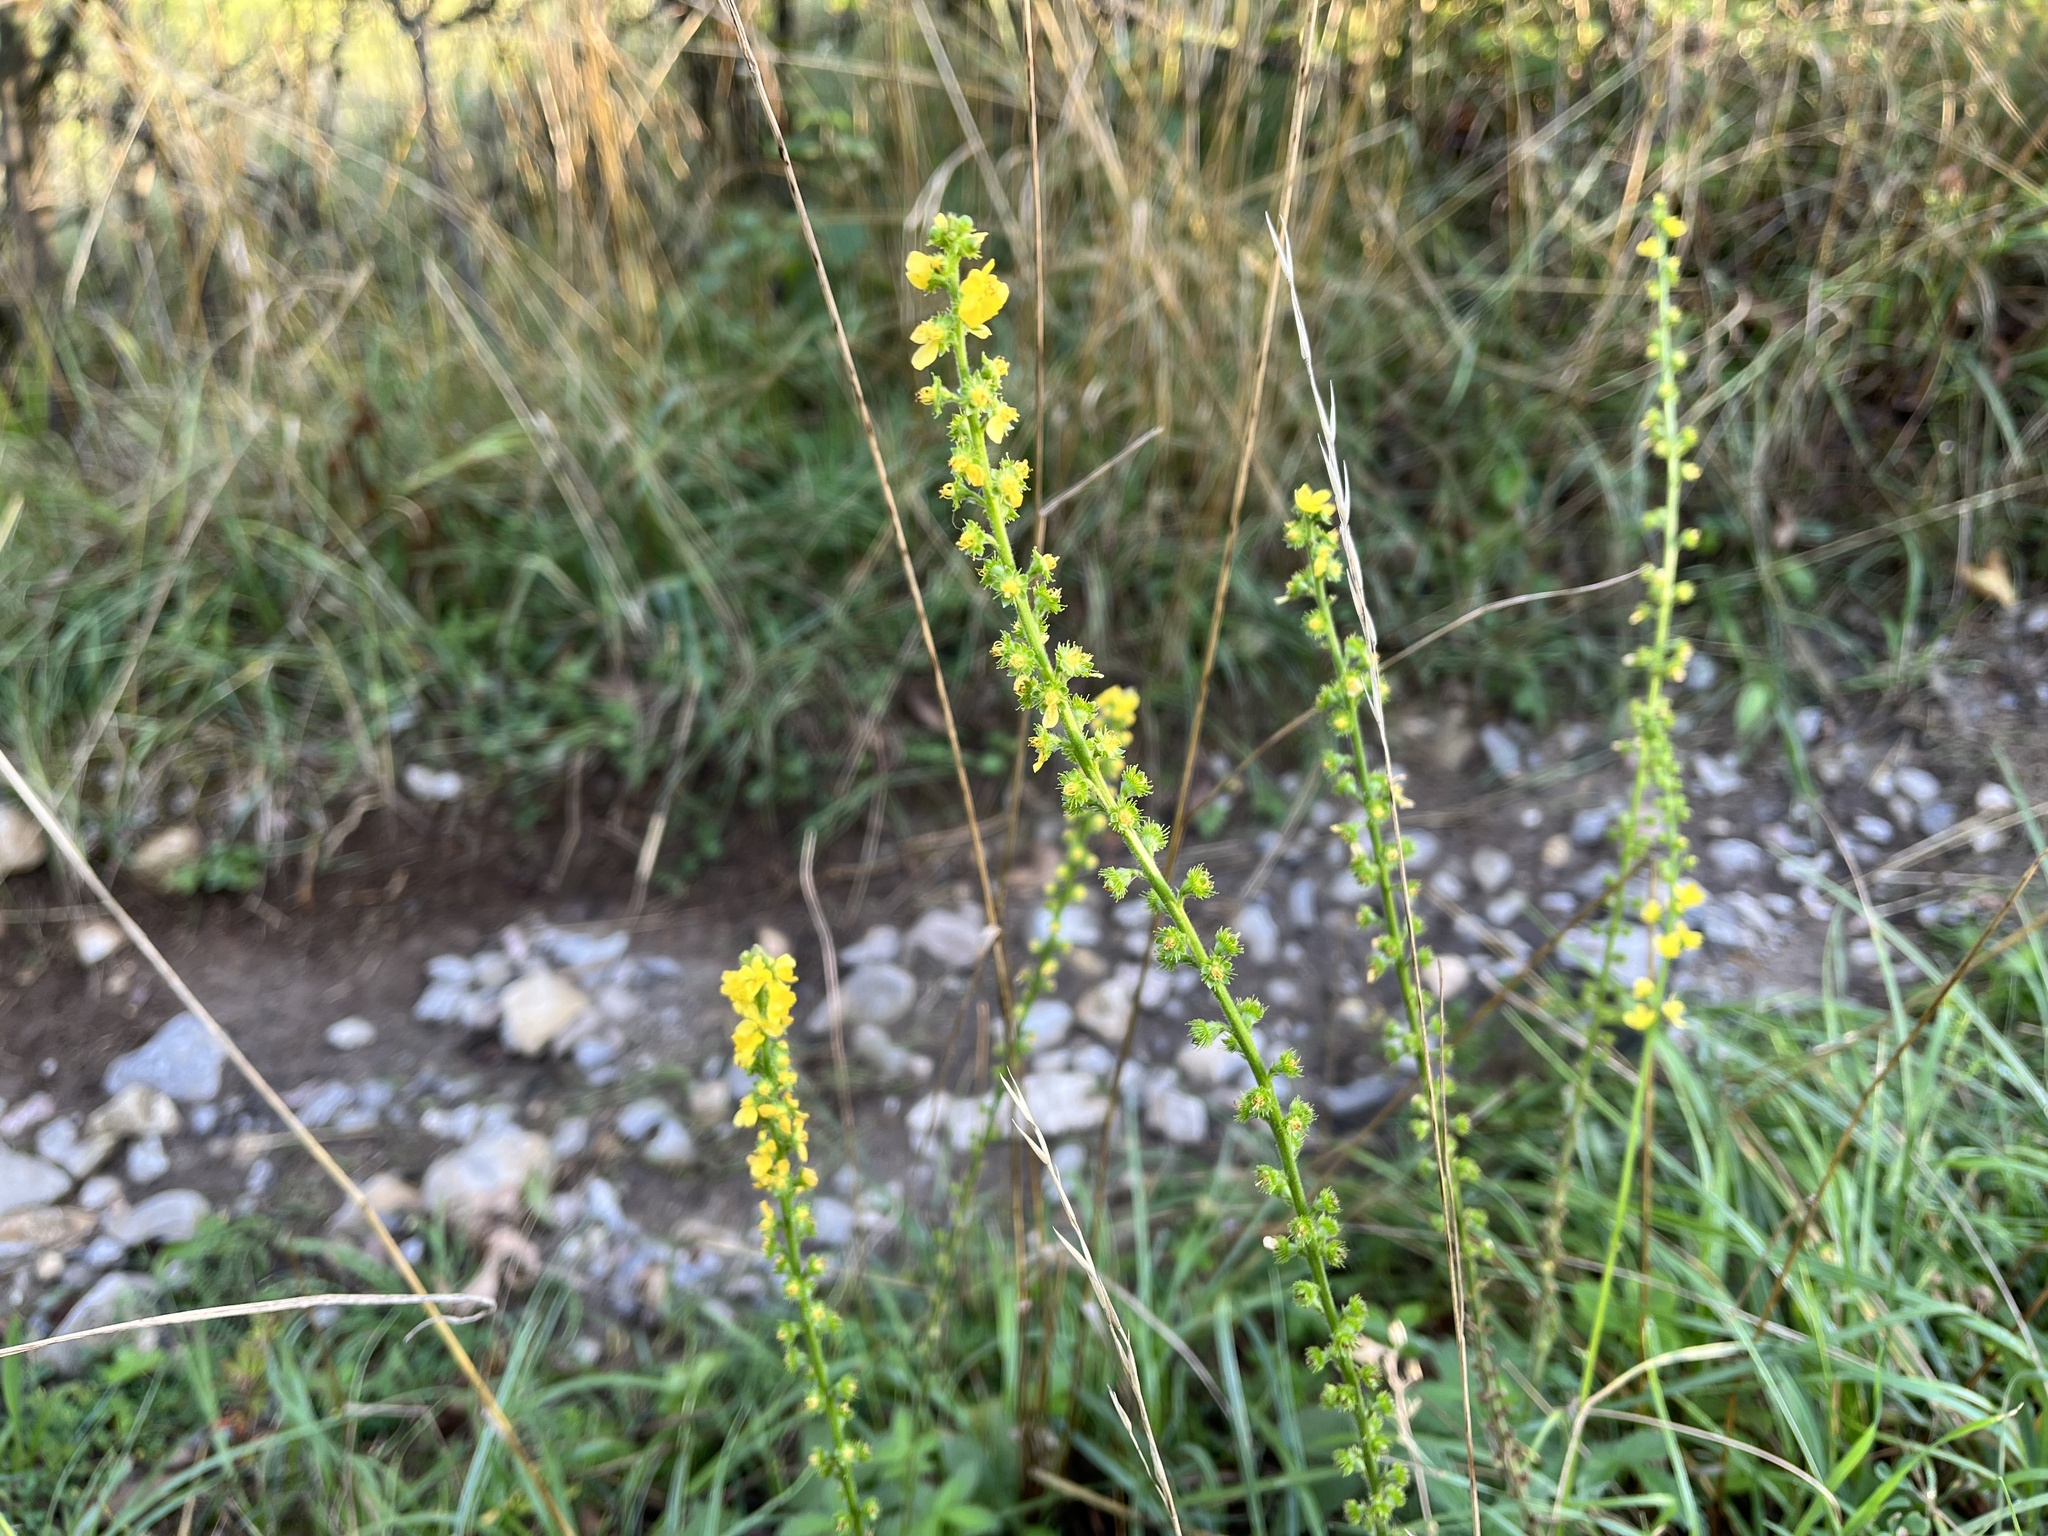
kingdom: Plantae
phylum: Tracheophyta
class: Magnoliopsida
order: Rosales
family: Rosaceae
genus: Agrimonia
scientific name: Agrimonia eupatoria
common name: Agrimony
